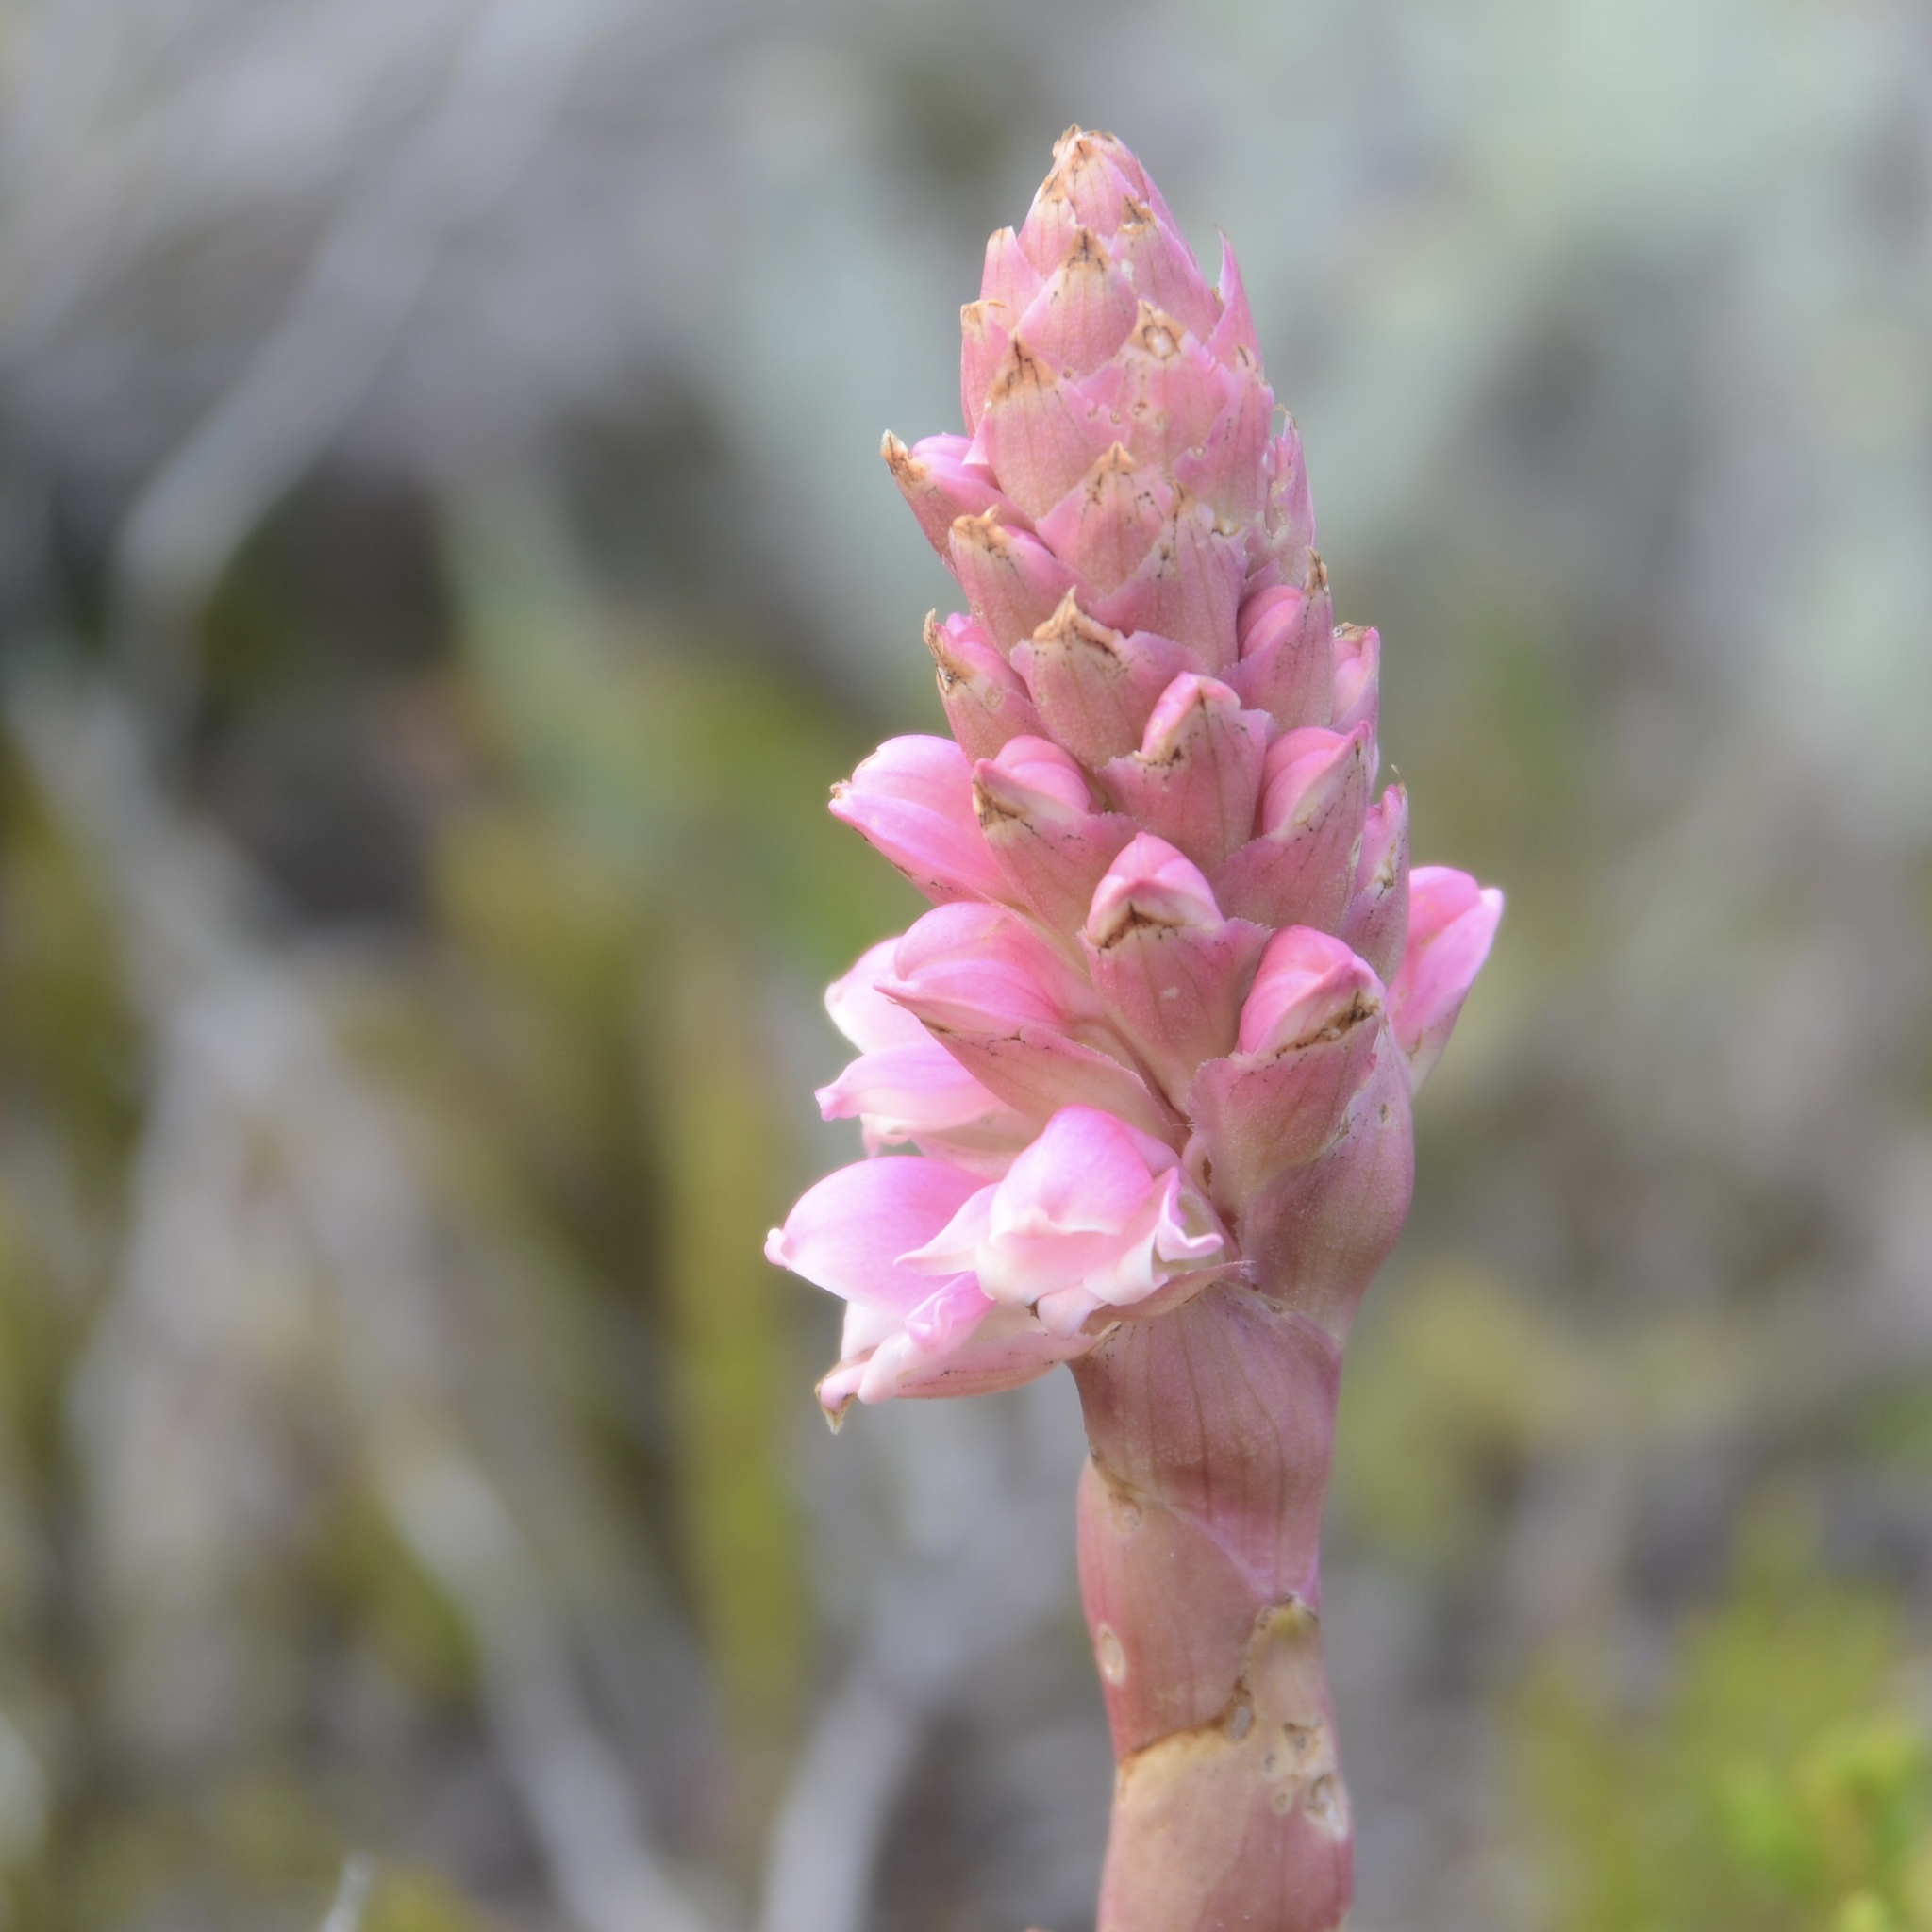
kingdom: Plantae
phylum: Tracheophyta
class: Liliopsida
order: Asparagales
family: Orchidaceae
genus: Satyrium
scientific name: Satyrium carneum
